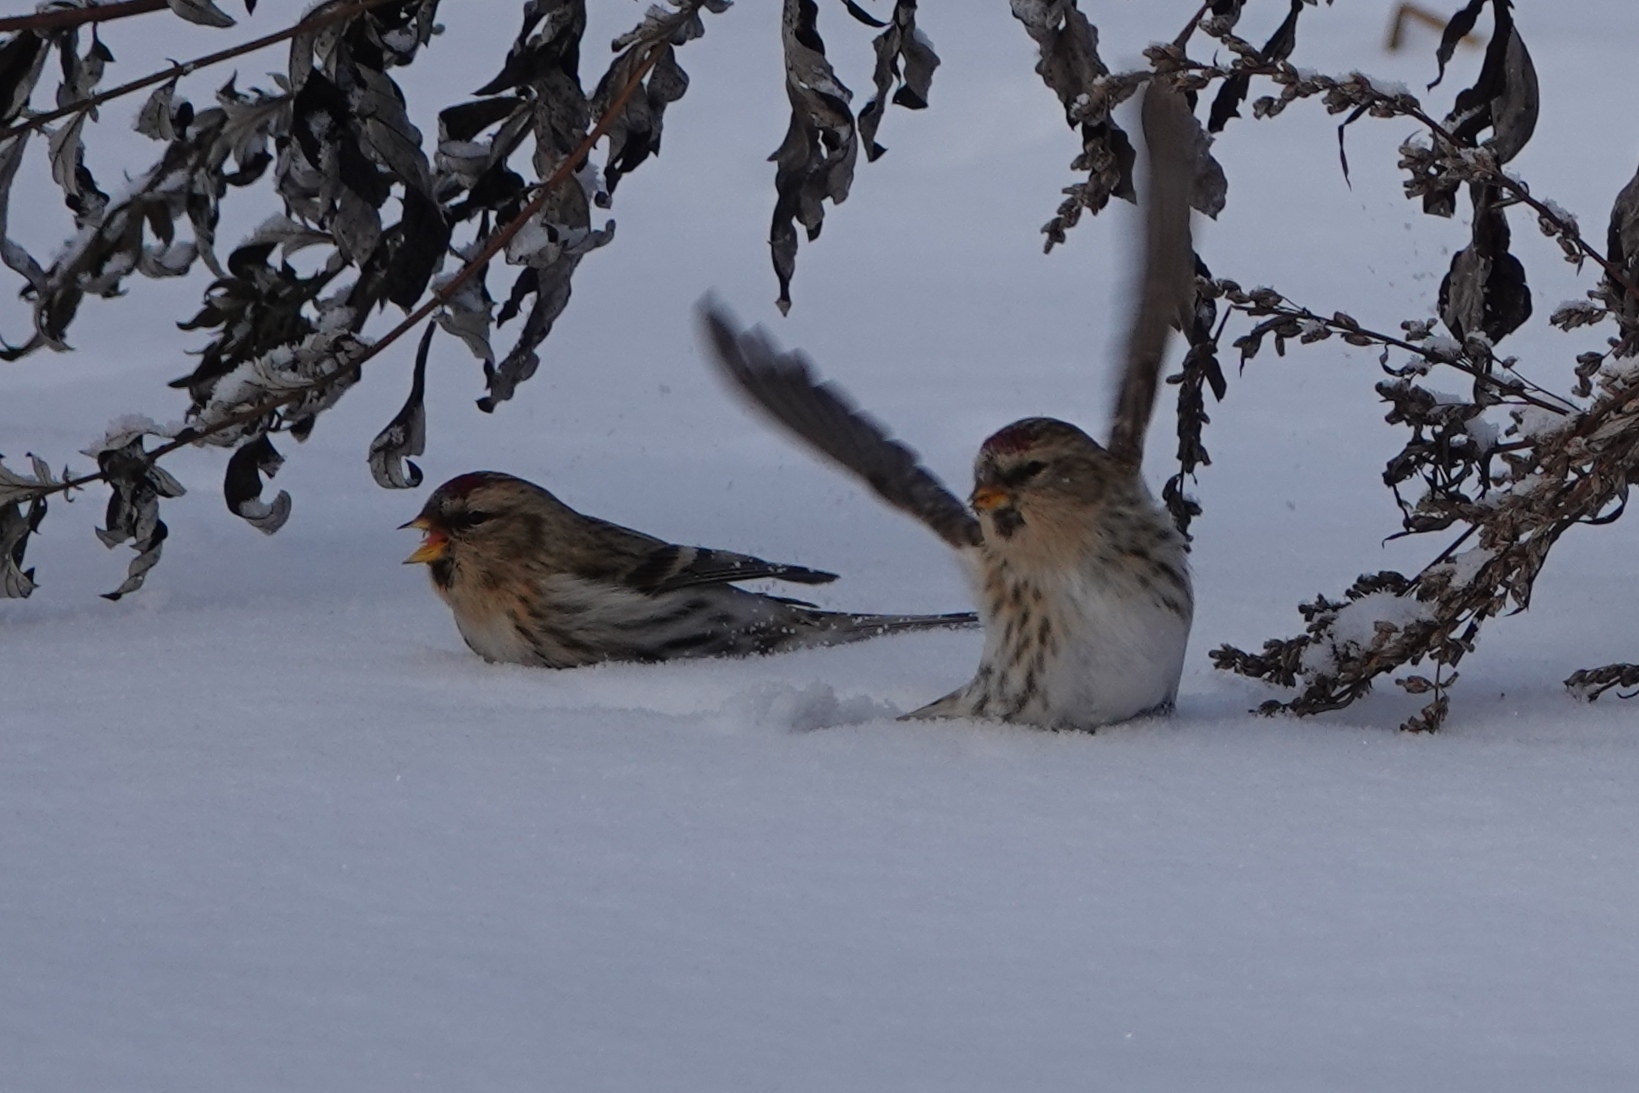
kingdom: Animalia
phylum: Chordata
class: Aves
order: Passeriformes
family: Fringillidae
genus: Acanthis
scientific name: Acanthis flammea
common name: Common redpoll
